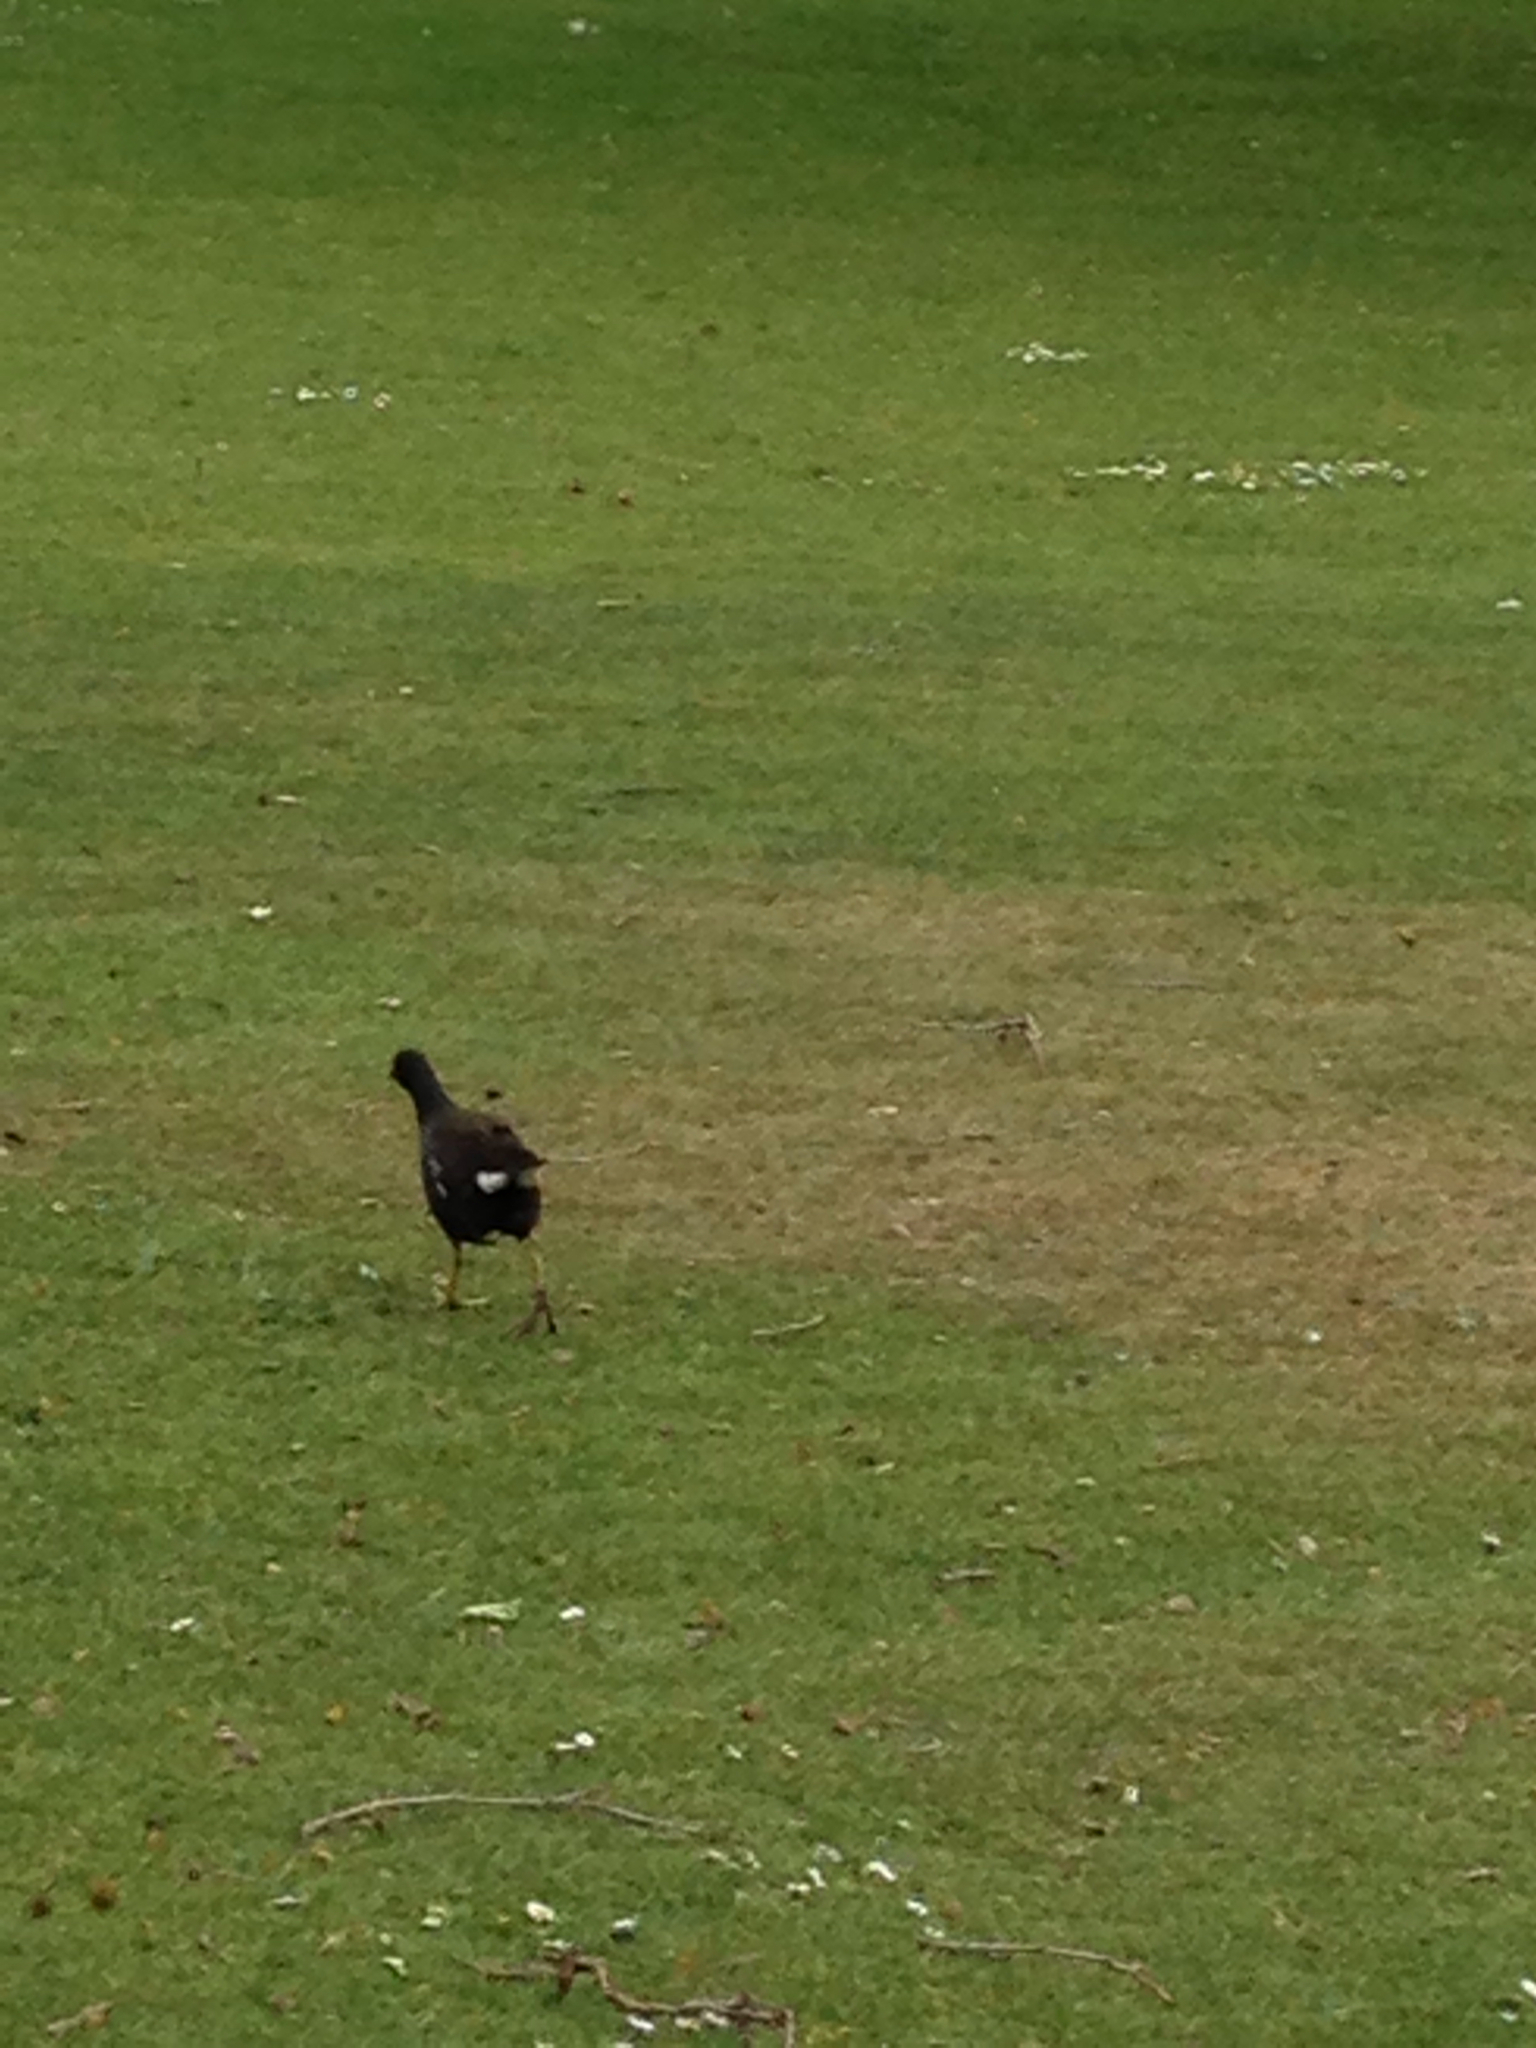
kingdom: Animalia
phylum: Chordata
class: Aves
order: Gruiformes
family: Rallidae
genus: Gallinula
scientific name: Gallinula chloropus
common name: Common moorhen
